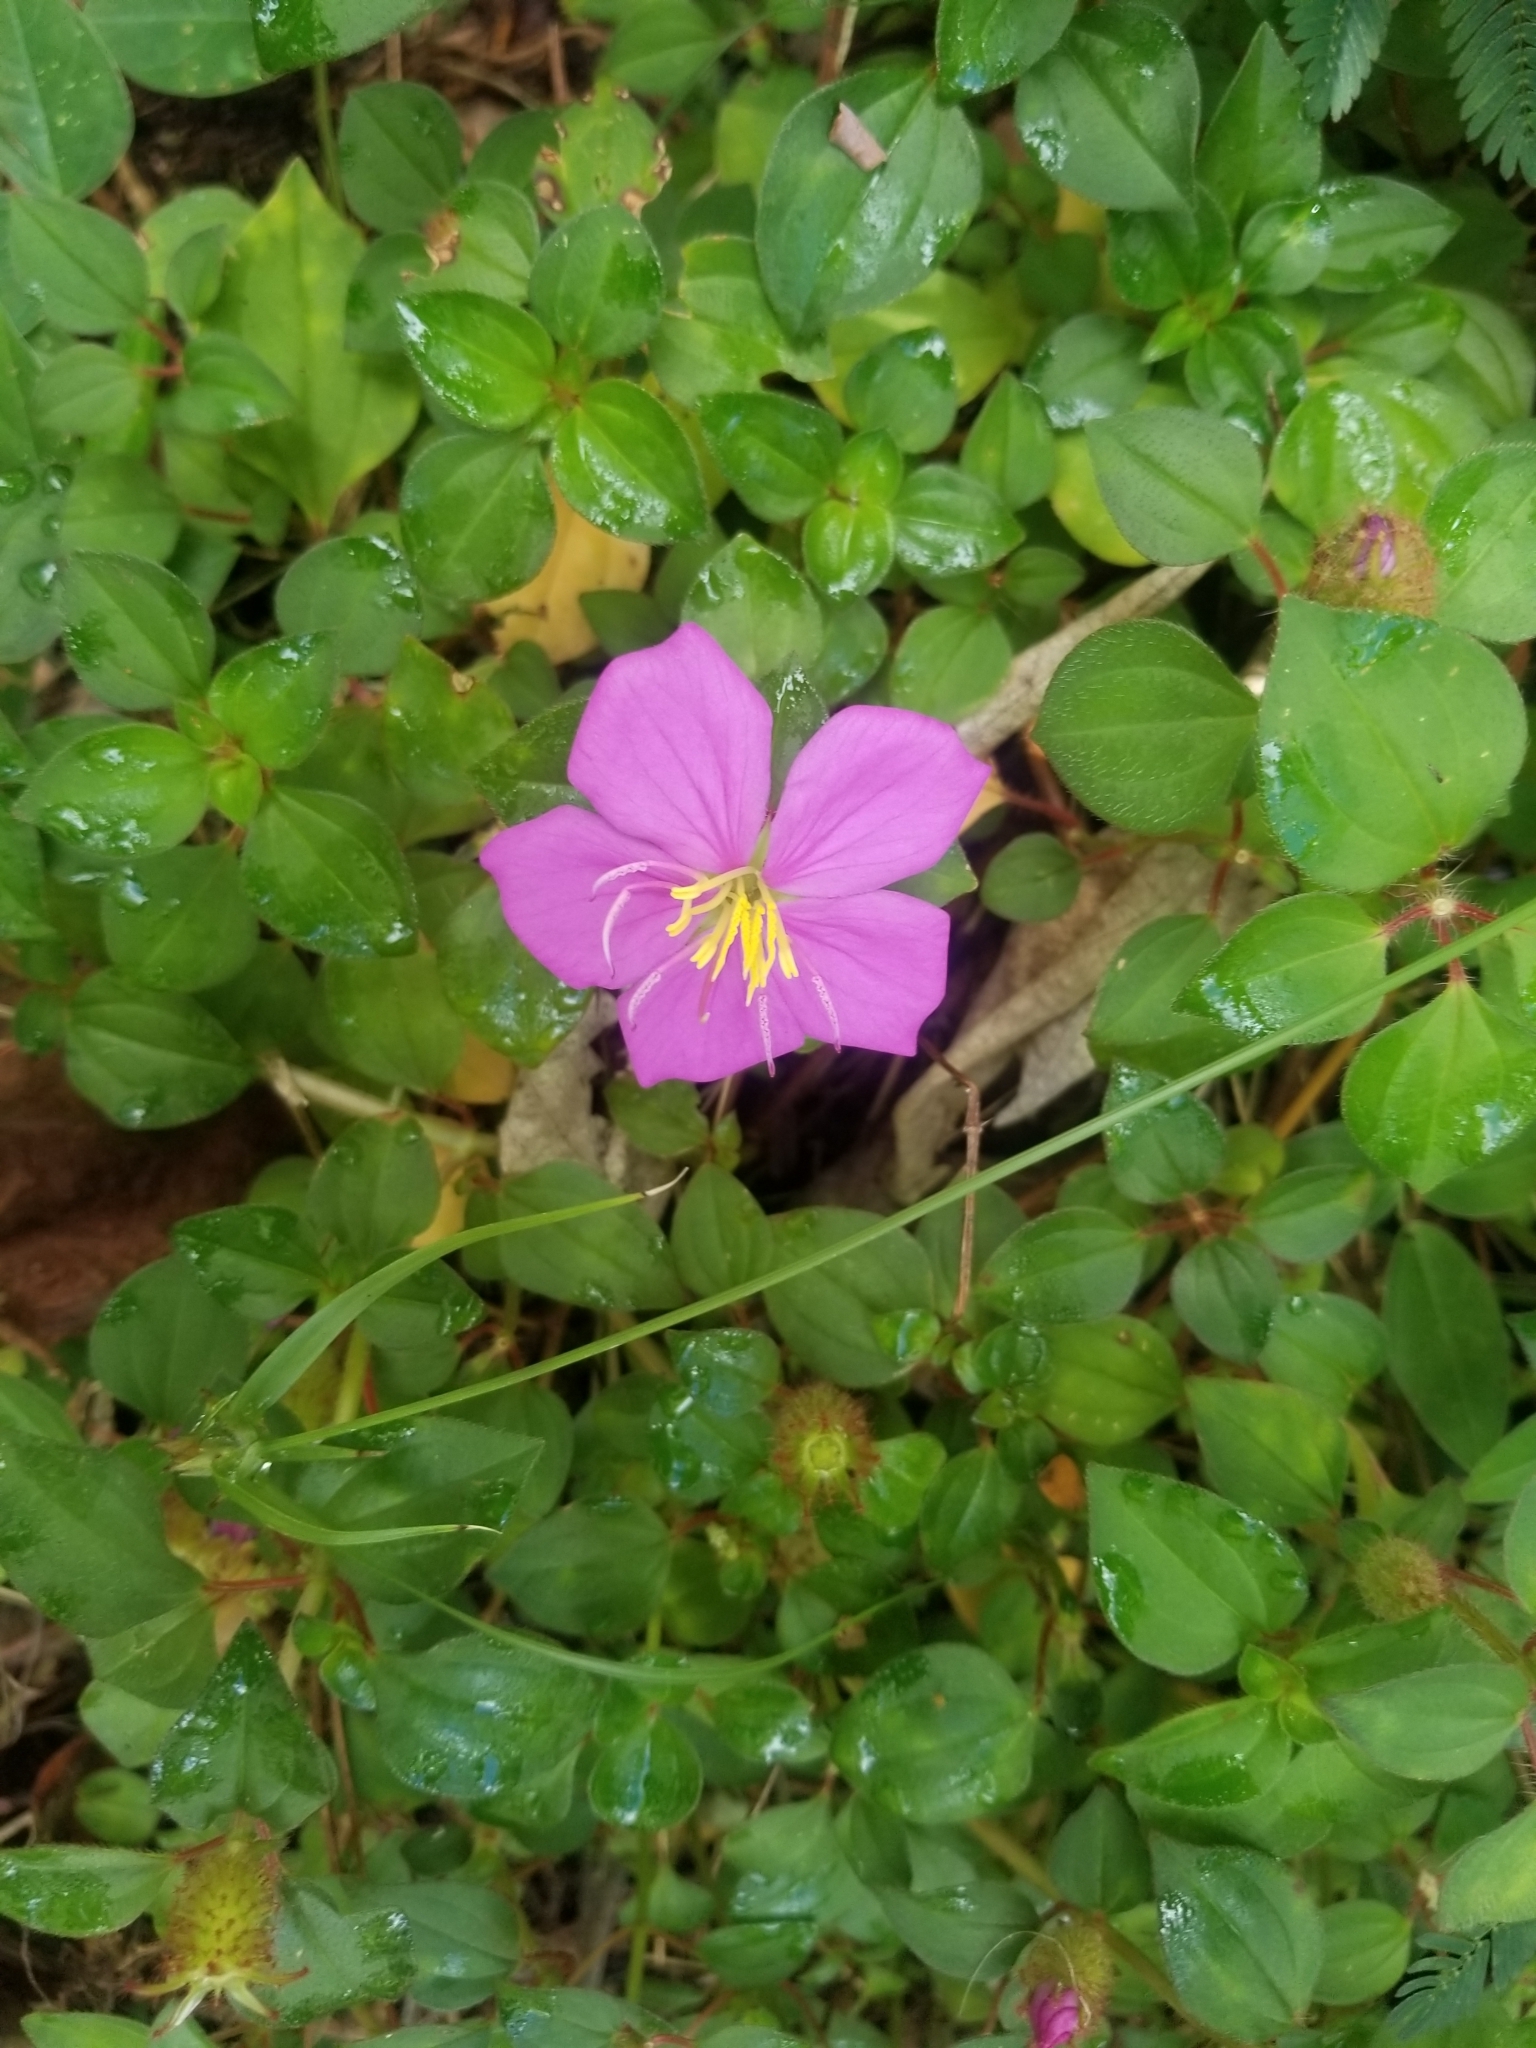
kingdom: Plantae
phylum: Tracheophyta
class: Magnoliopsida
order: Myrtales
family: Melastomataceae
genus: Heterotis
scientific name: Heterotis rotundifolia
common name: Pinklady
